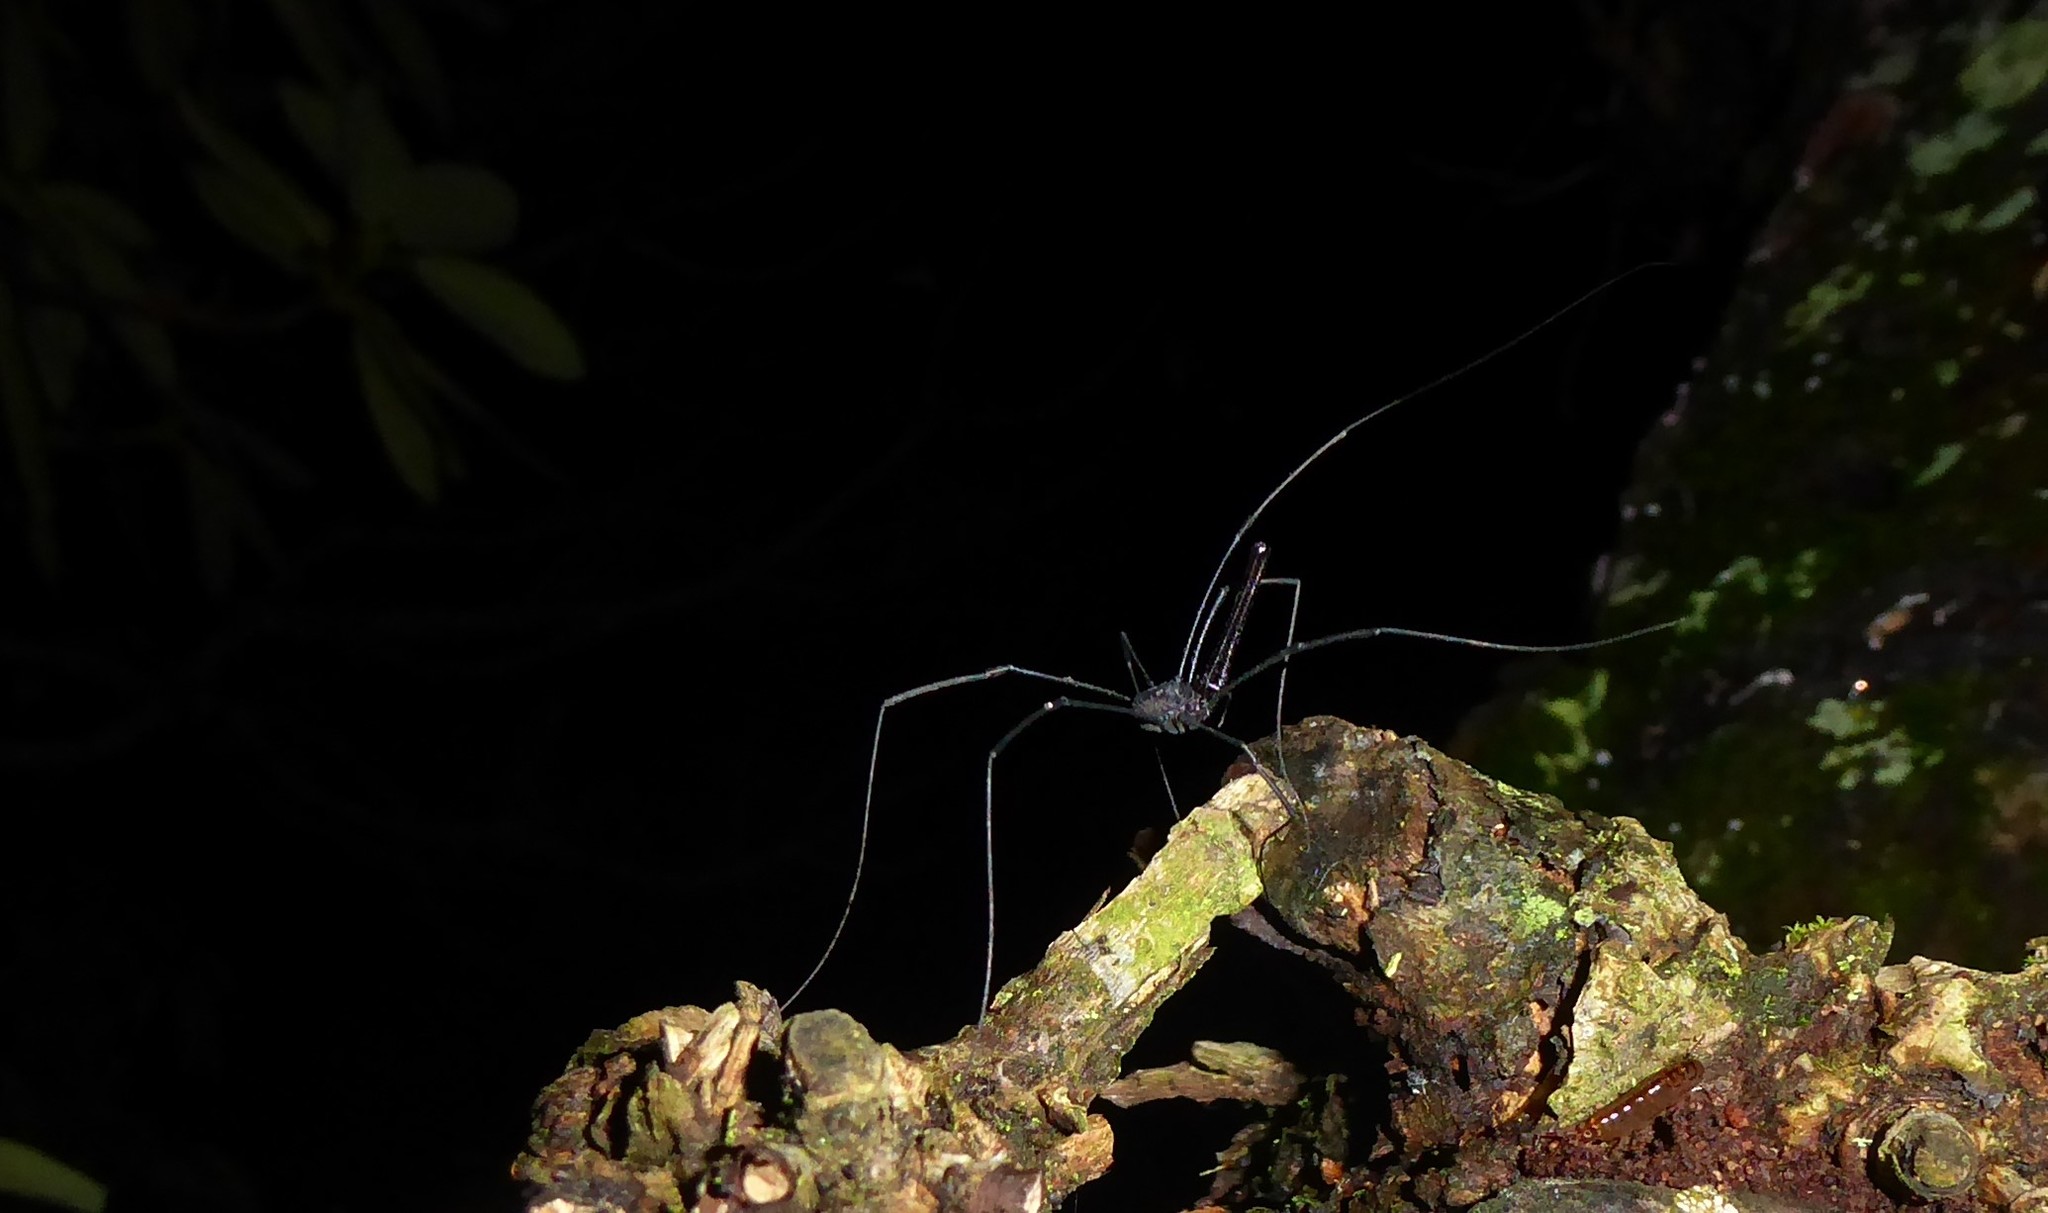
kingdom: Animalia
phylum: Arthropoda
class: Arachnida
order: Opiliones
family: Neopilionidae
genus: Pantopsalis
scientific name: Pantopsalis albipalpis
